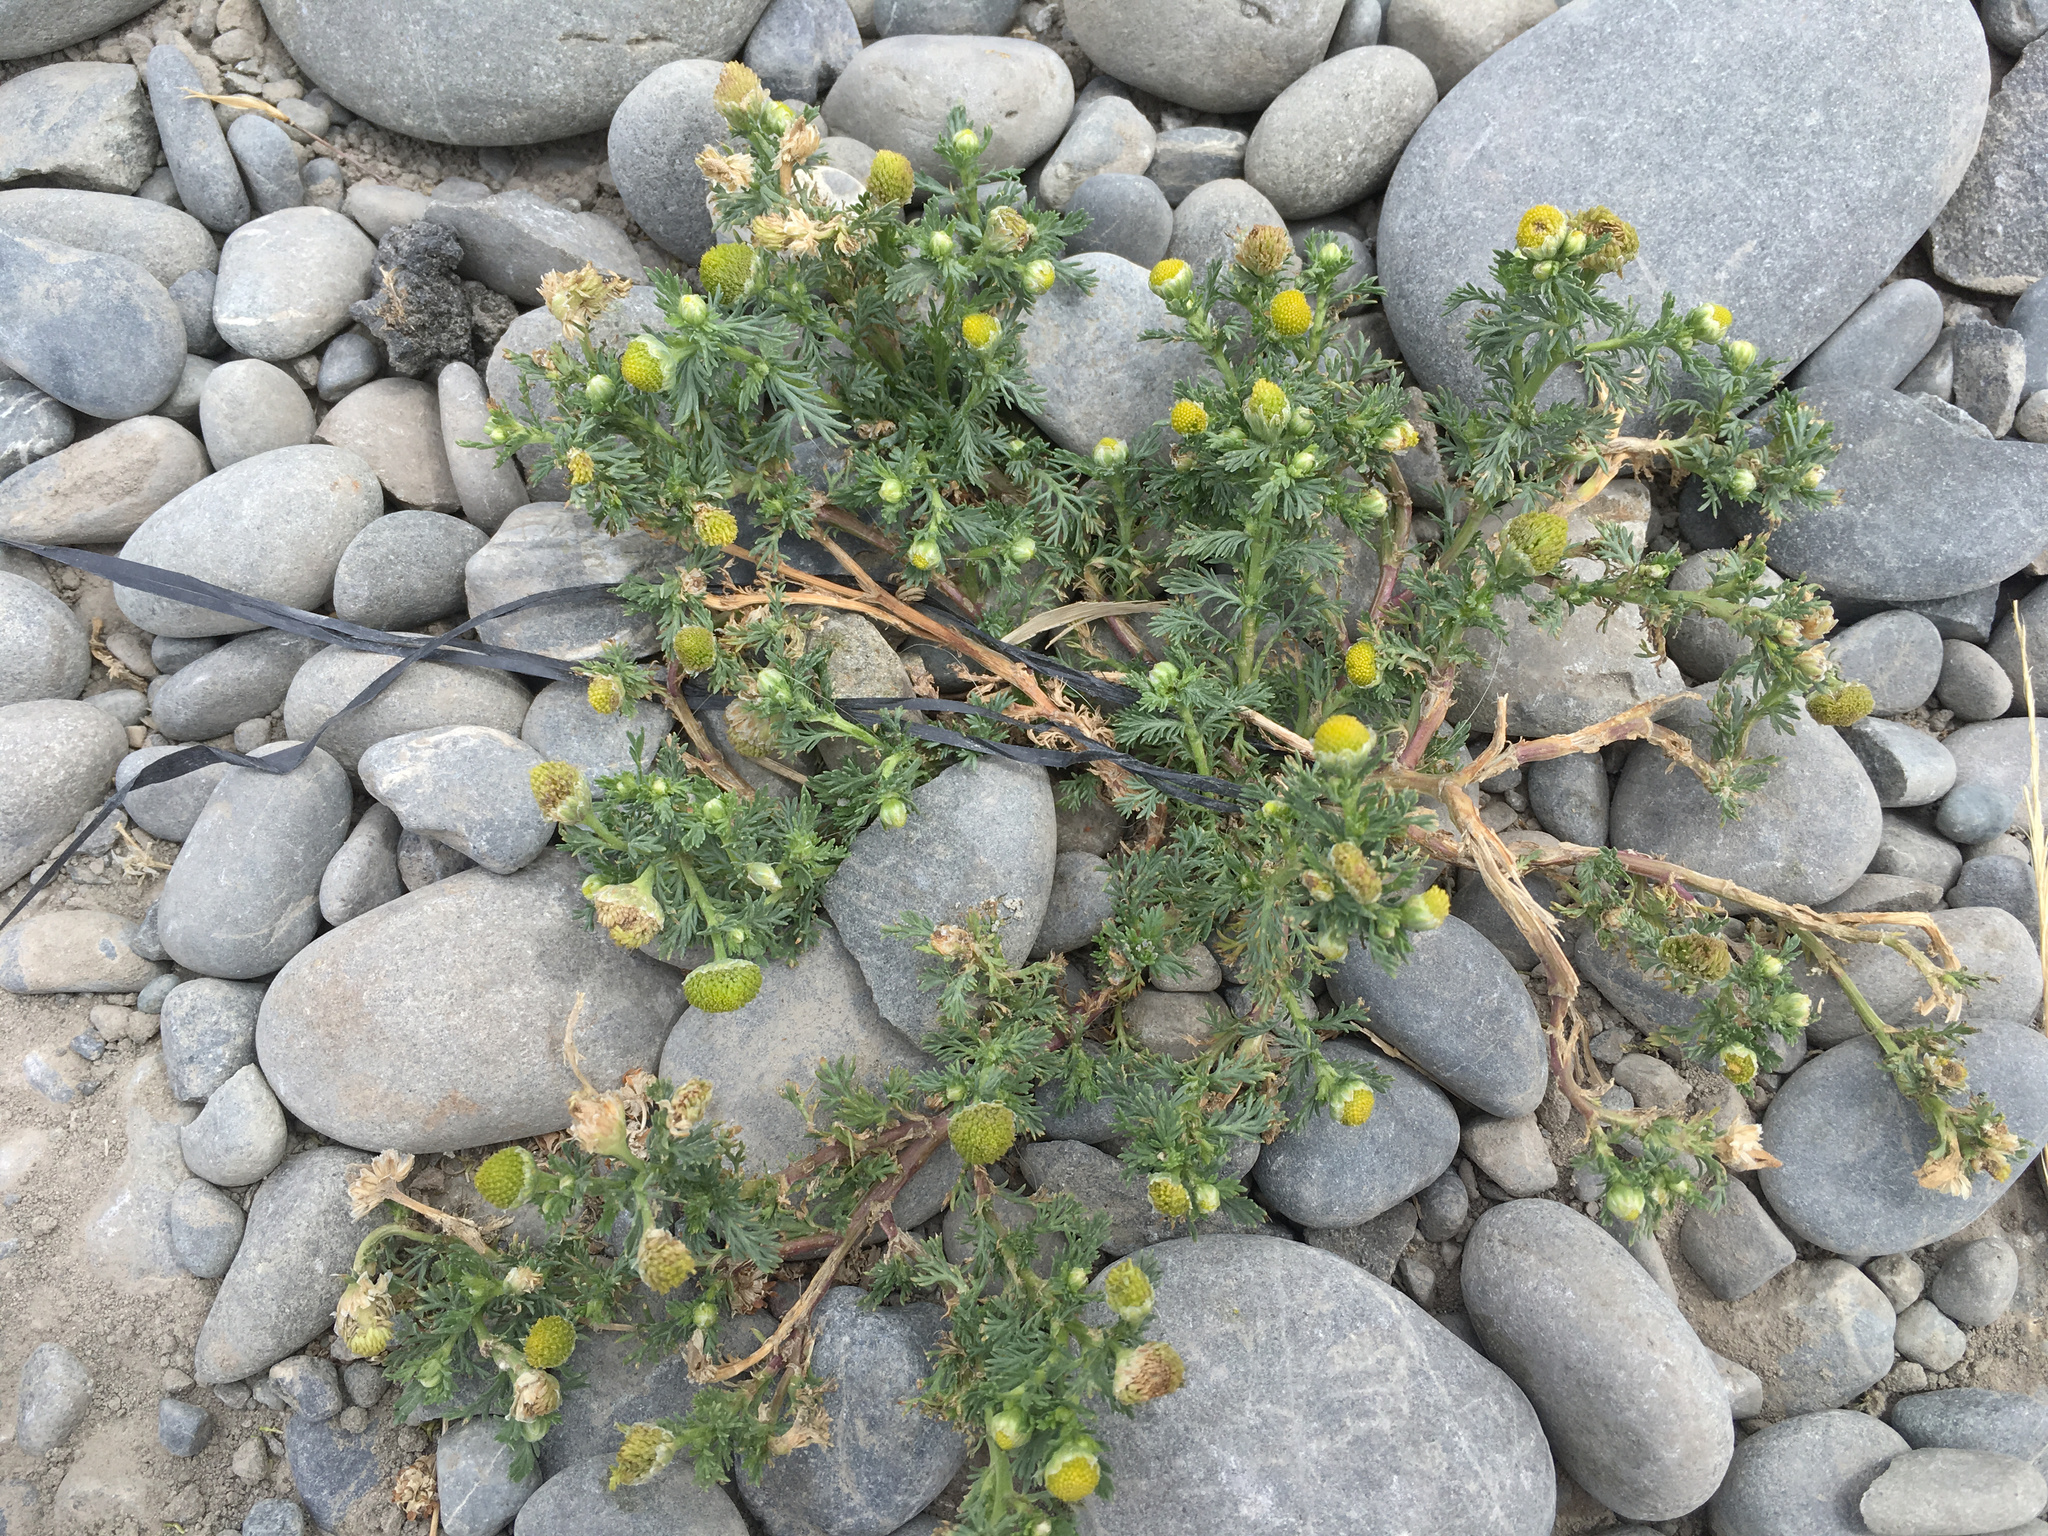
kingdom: Plantae
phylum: Tracheophyta
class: Magnoliopsida
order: Asterales
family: Asteraceae
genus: Matricaria
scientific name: Matricaria discoidea
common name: Disc mayweed
